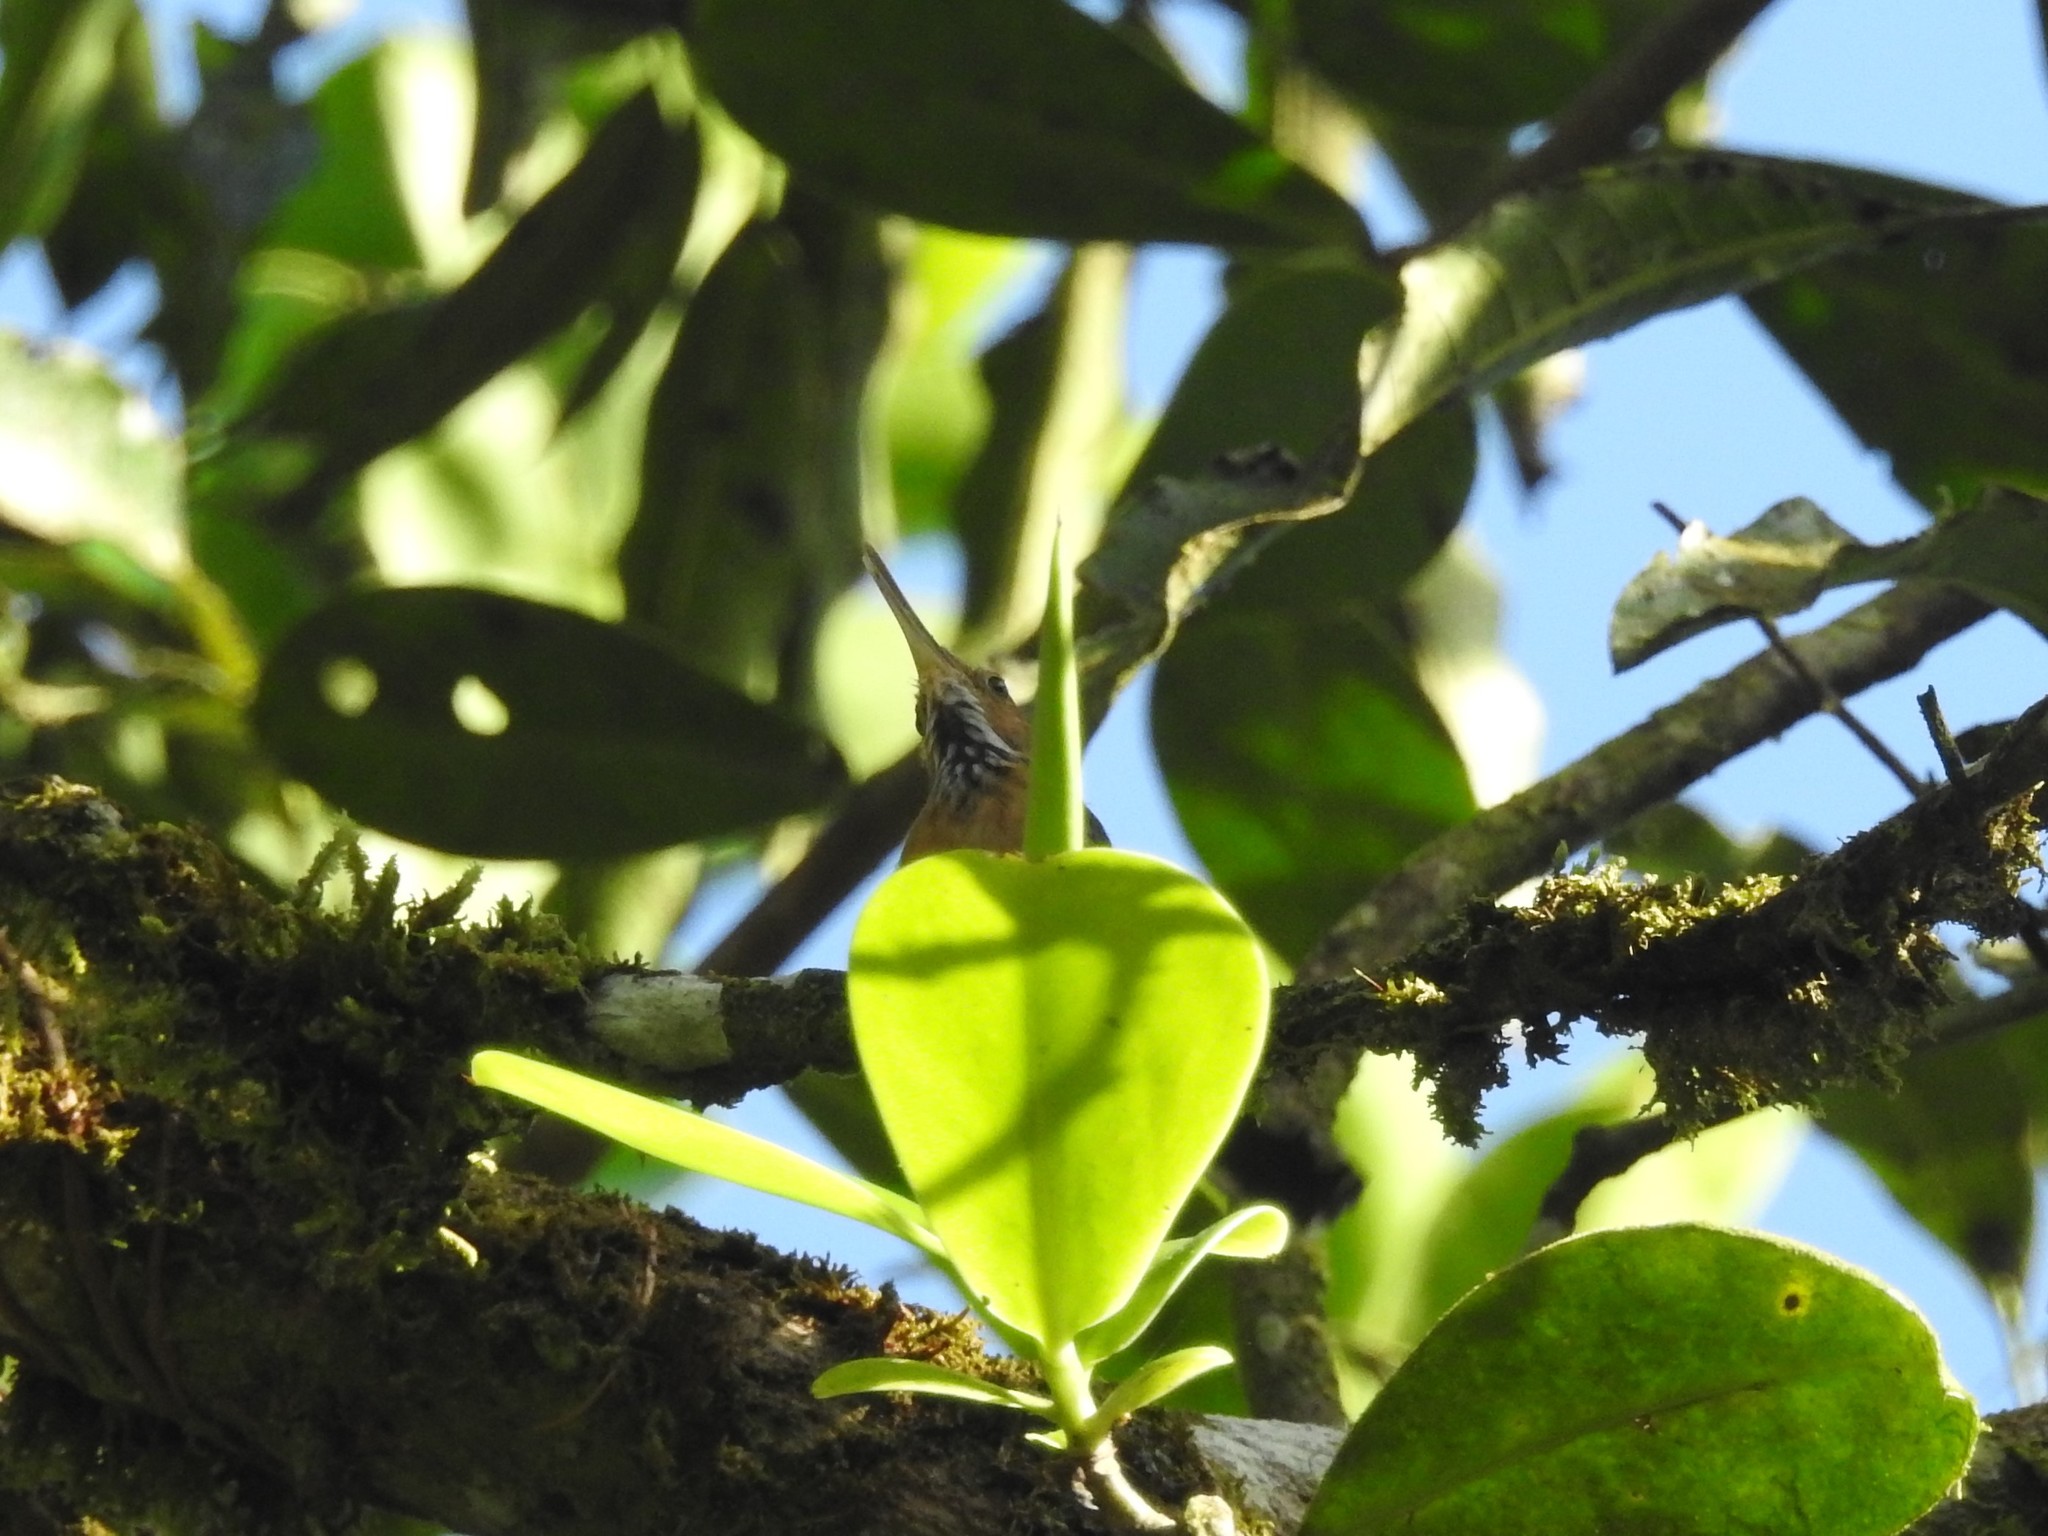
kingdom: Animalia
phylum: Chordata
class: Aves
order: Passeriformes
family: Polioptilidae
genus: Ramphocaenus
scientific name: Ramphocaenus melanurus
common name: Long-billed gnatwren
